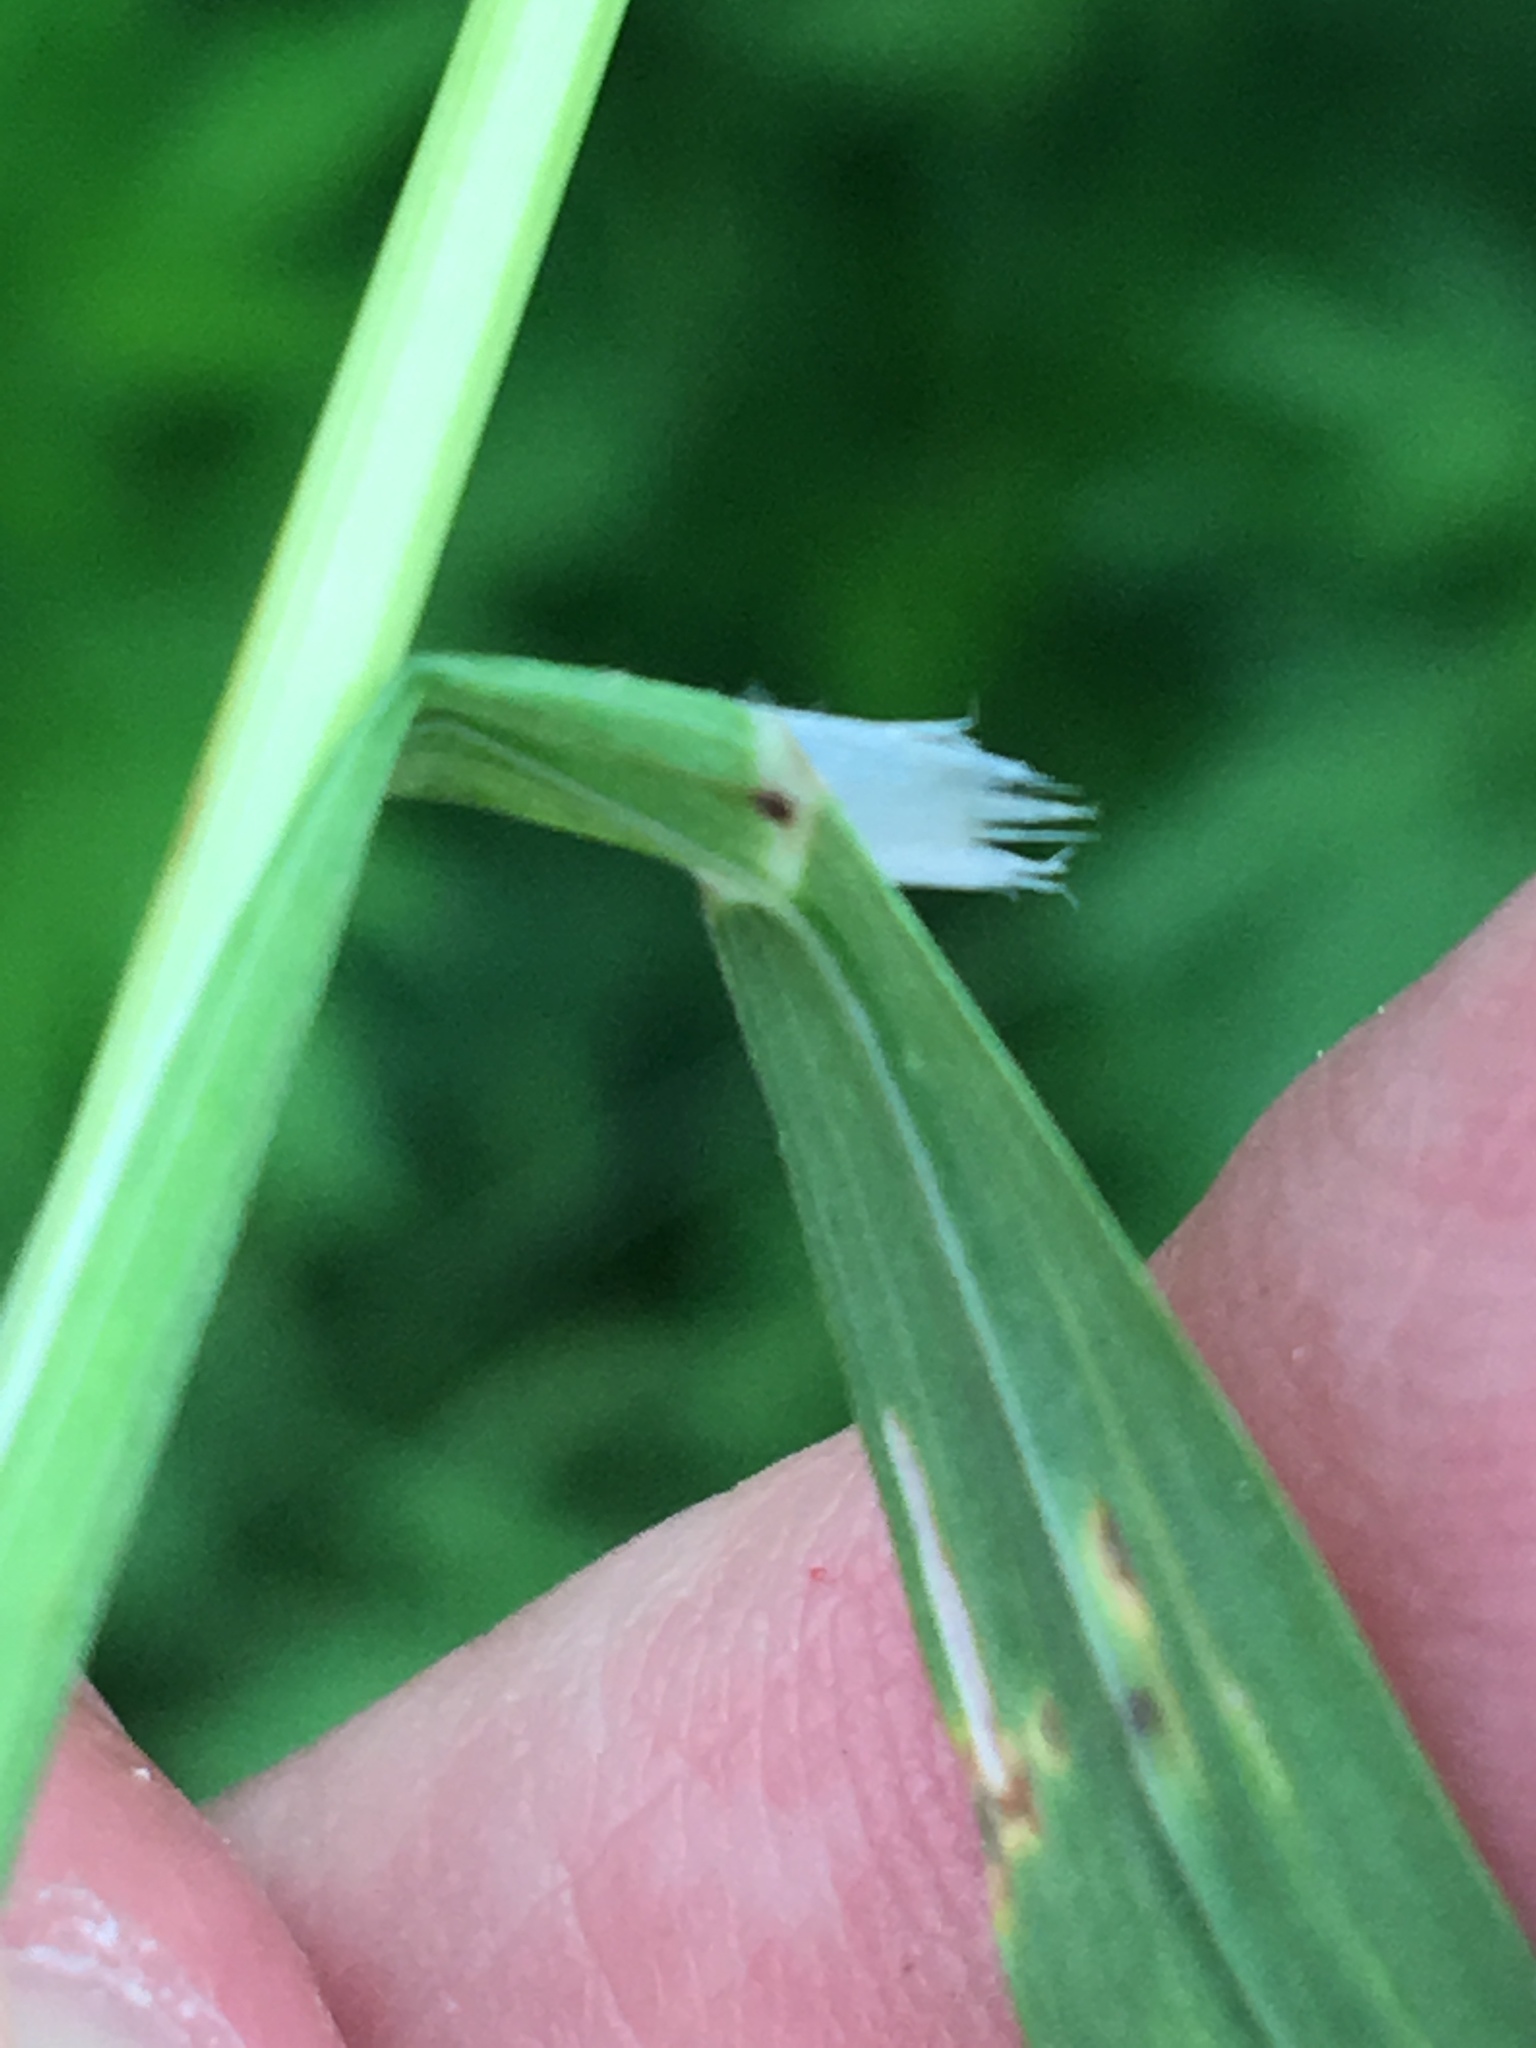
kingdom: Plantae
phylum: Tracheophyta
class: Liliopsida
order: Poales
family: Poaceae
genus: Bromus
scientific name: Bromus sterilis
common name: Poverty brome
